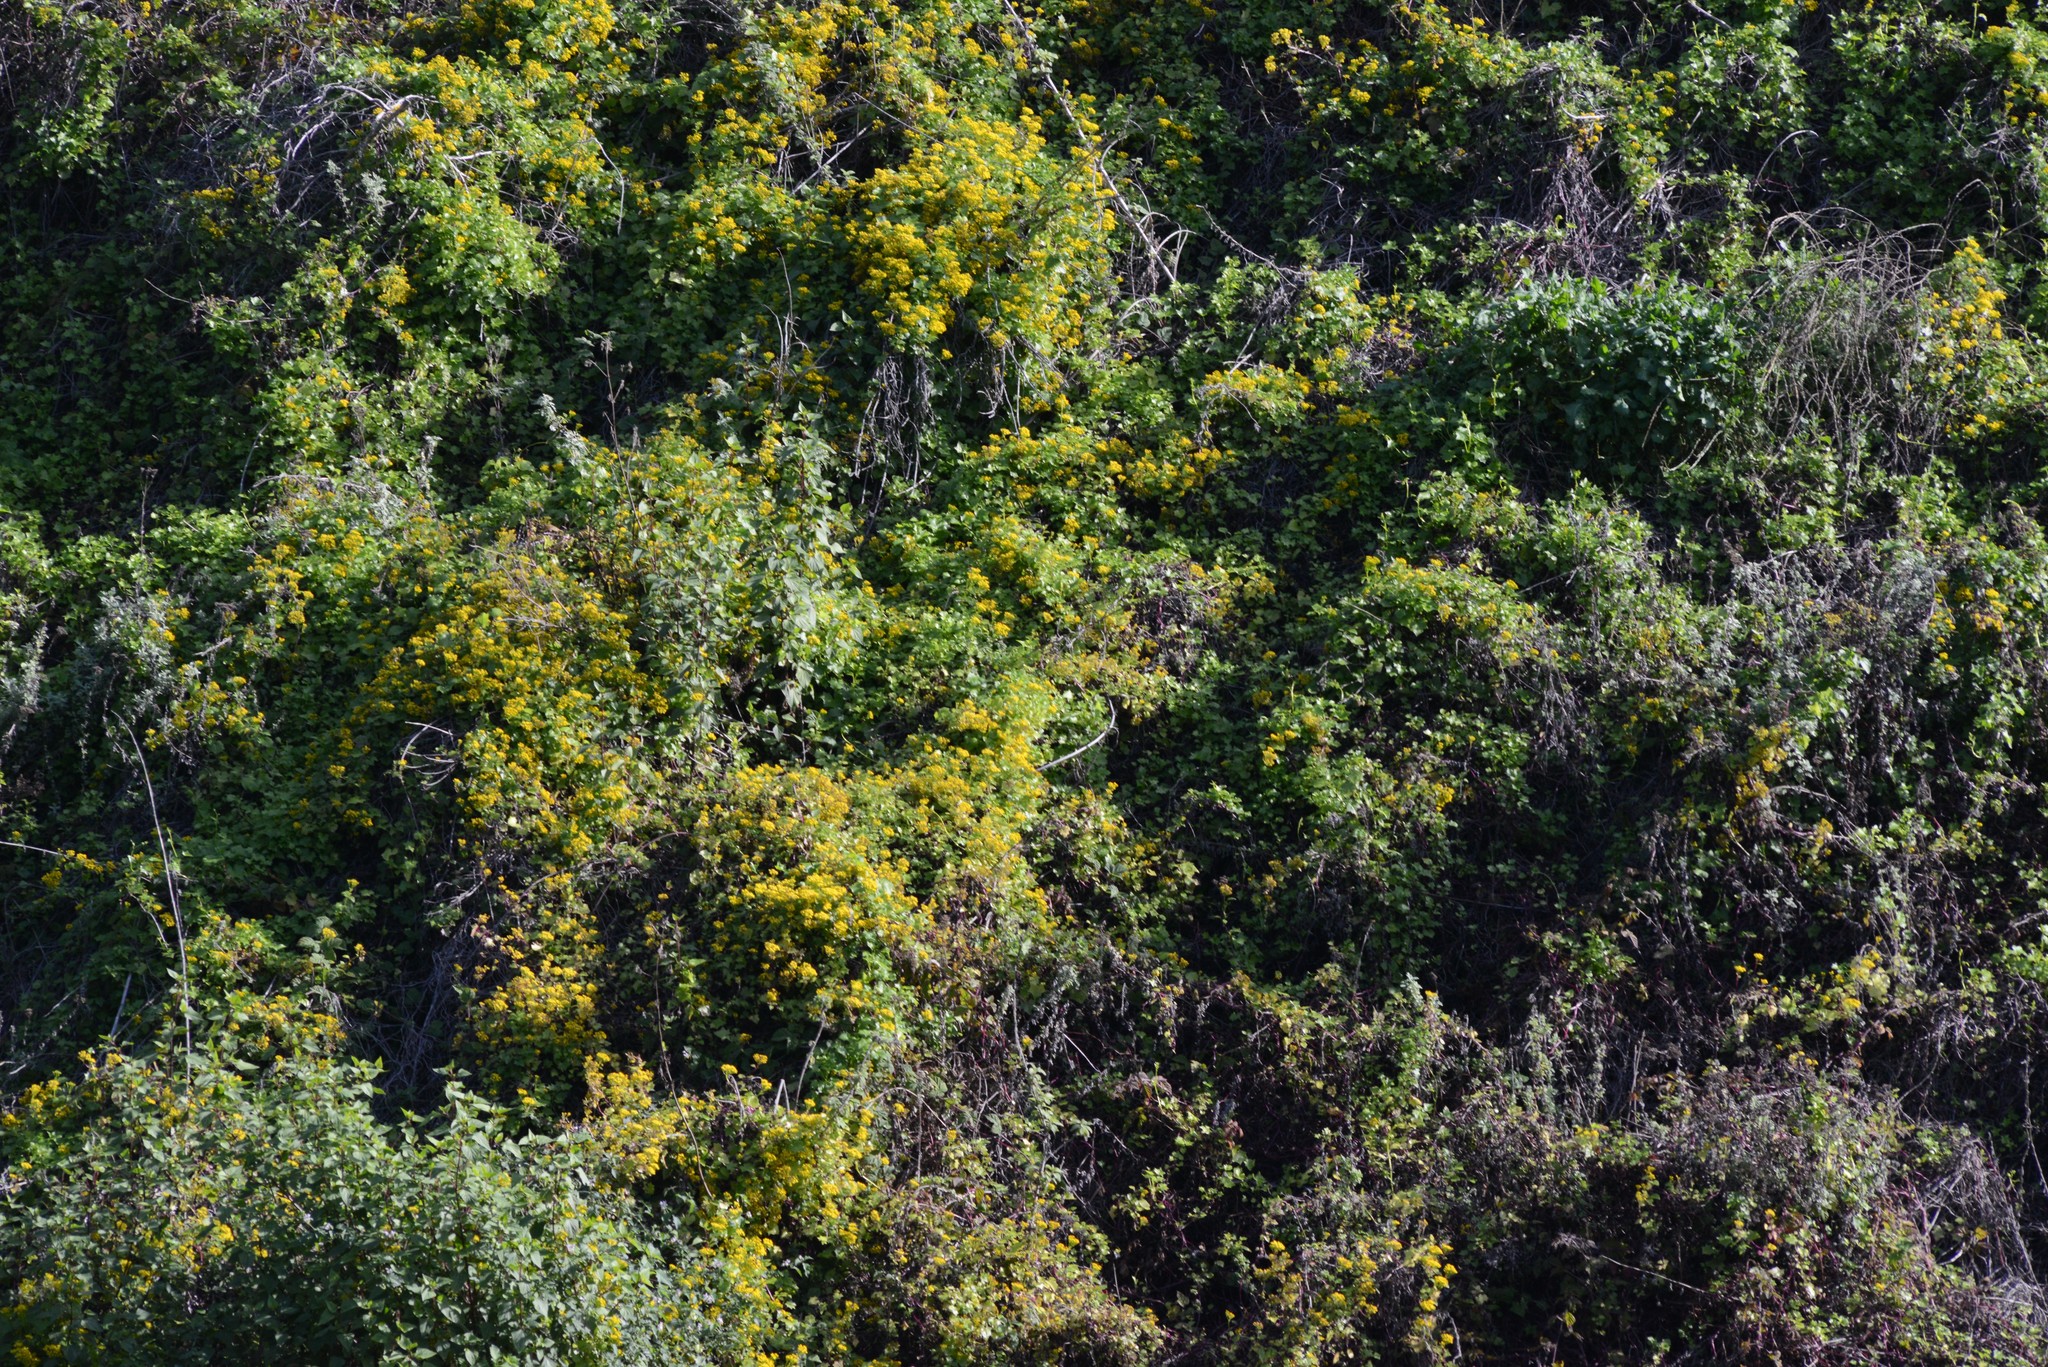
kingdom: Plantae
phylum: Tracheophyta
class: Magnoliopsida
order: Asterales
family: Asteraceae
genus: Delairea
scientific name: Delairea odorata
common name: Cape-ivy
